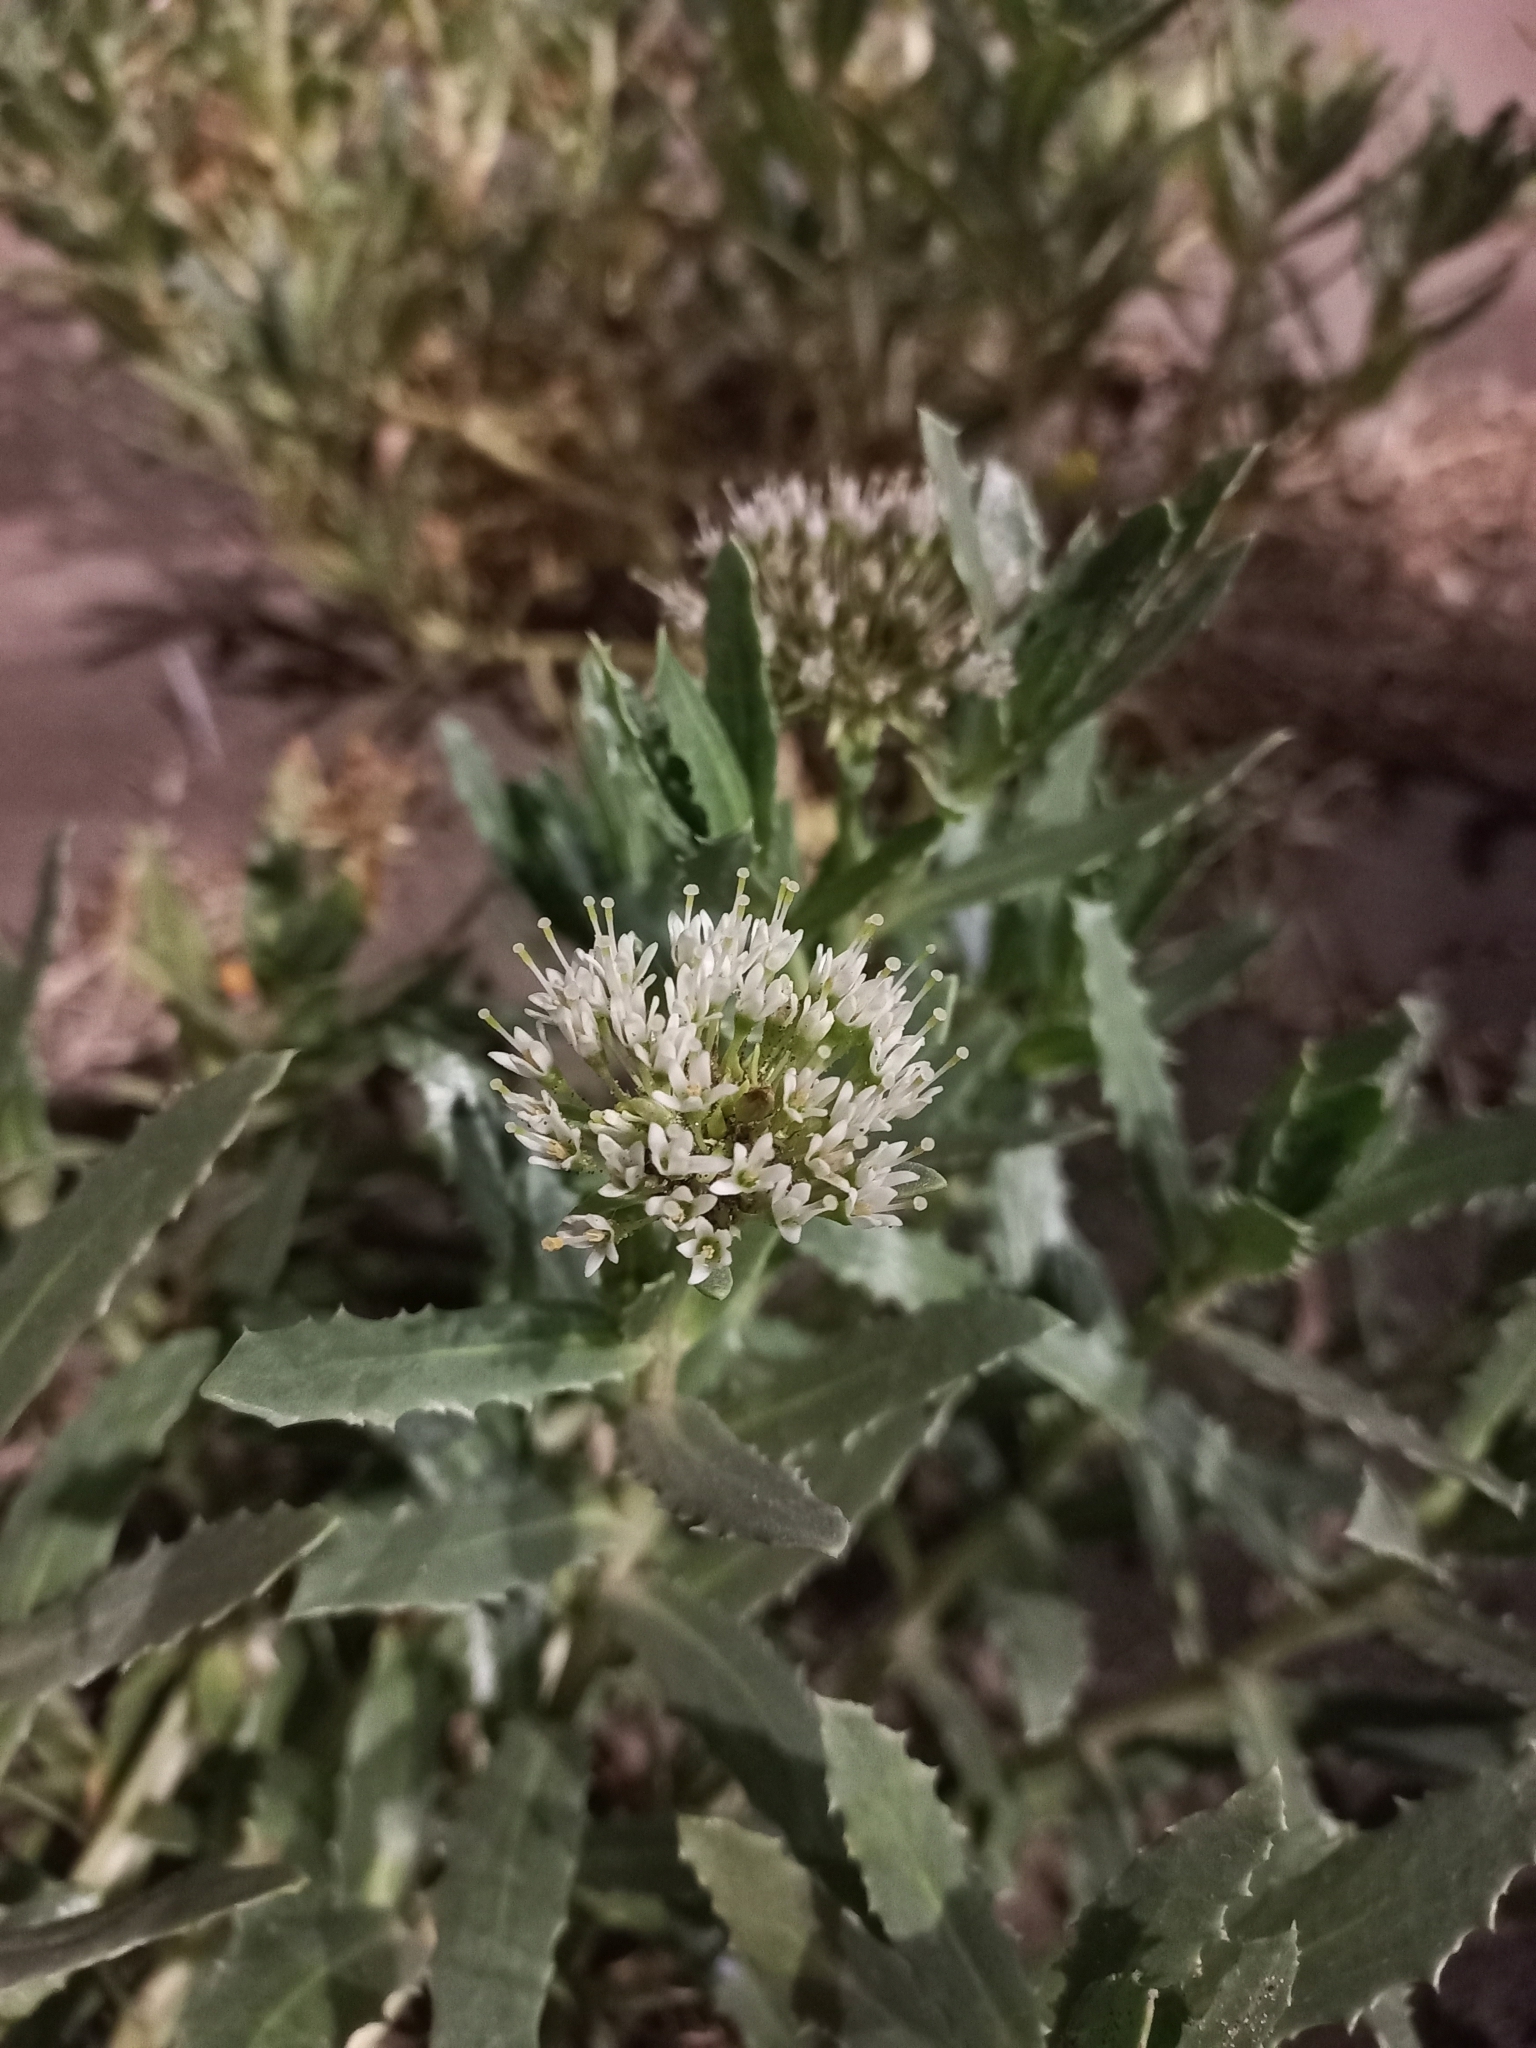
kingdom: Plantae
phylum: Tracheophyta
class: Magnoliopsida
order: Asterales
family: Calyceraceae
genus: Calycera
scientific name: Calycera crassifolia
